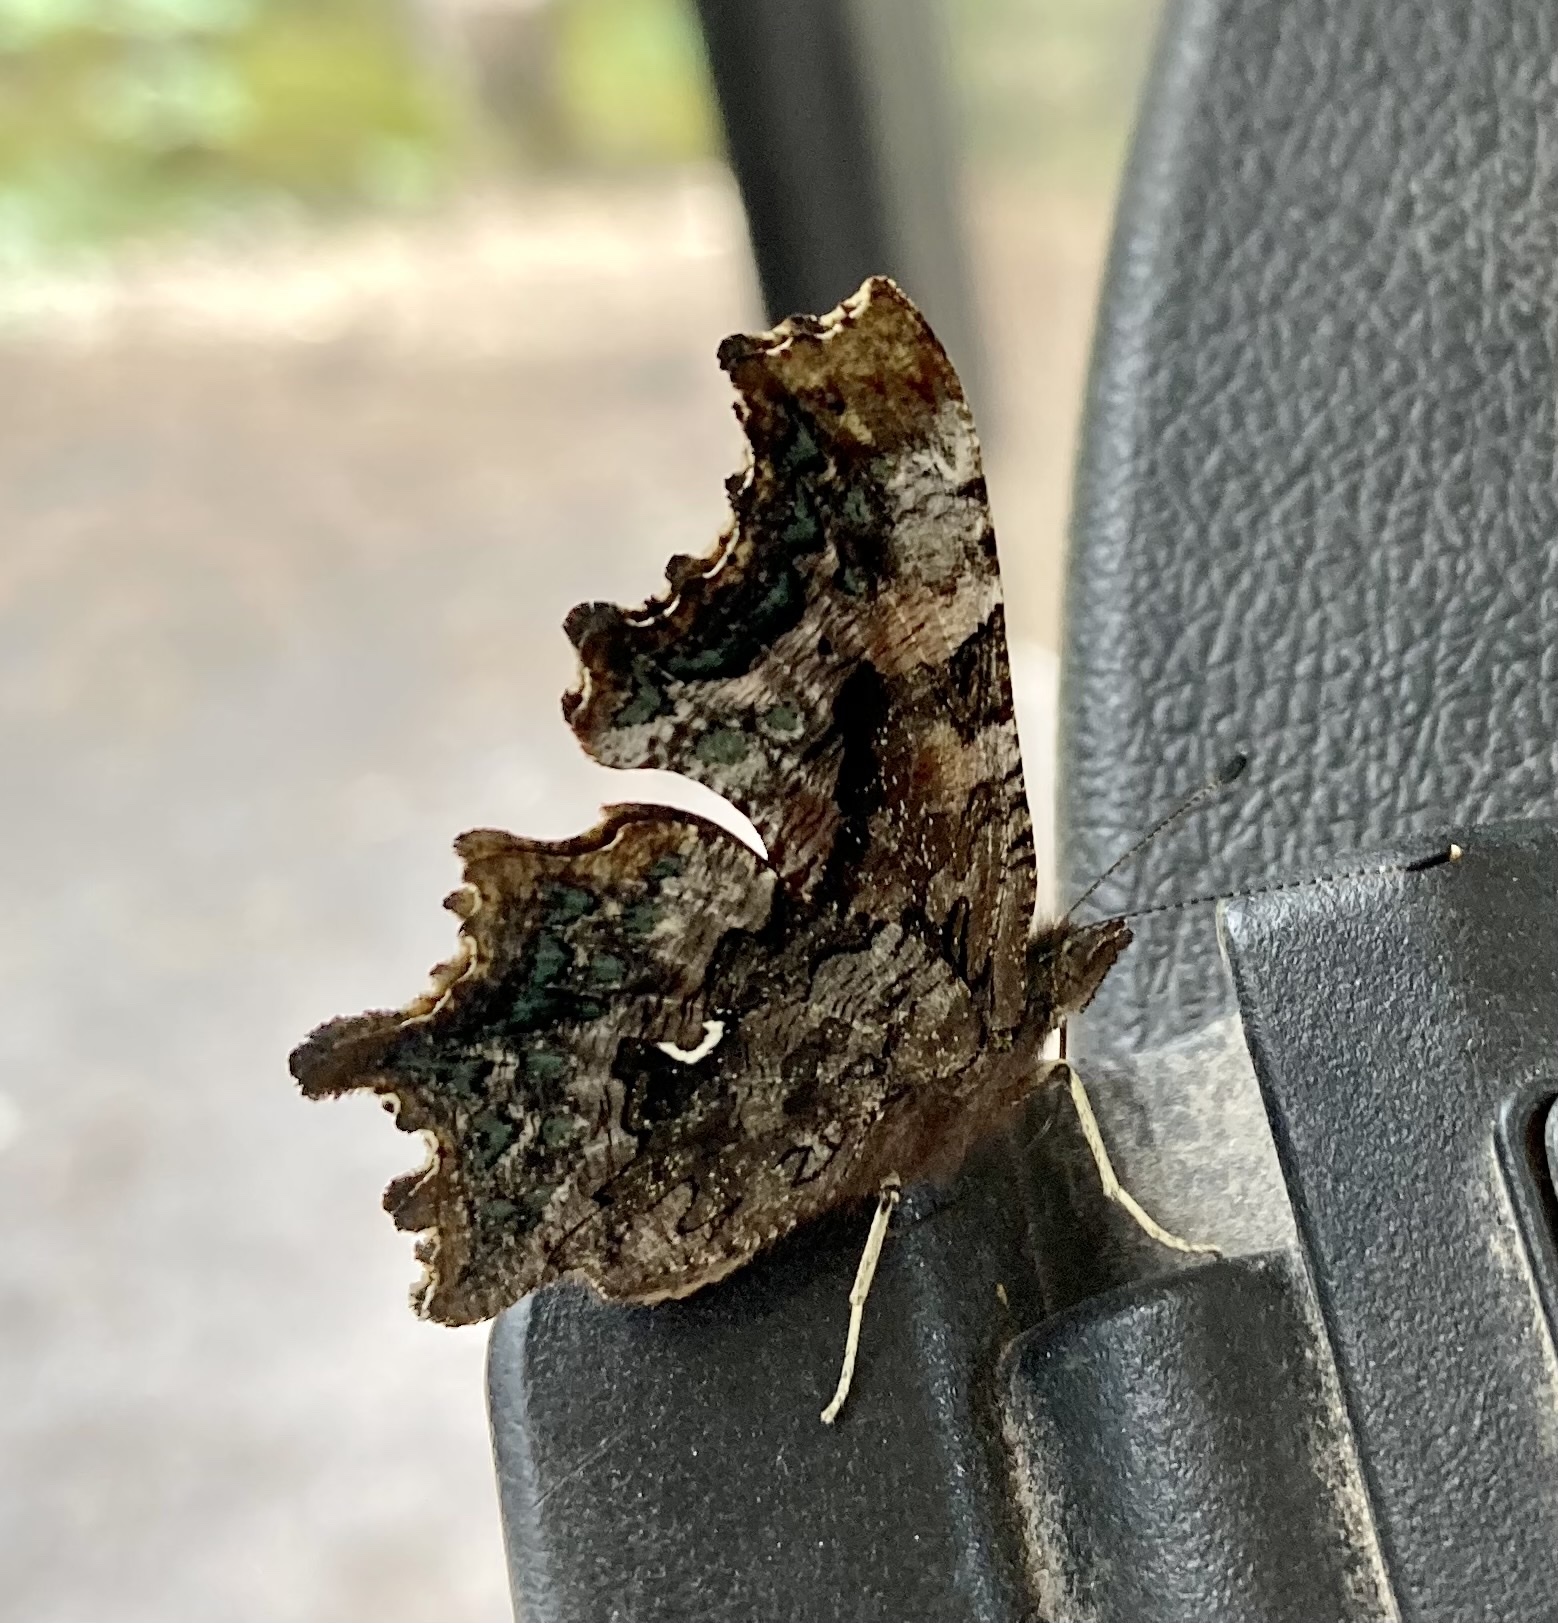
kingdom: Animalia
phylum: Arthropoda
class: Insecta
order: Lepidoptera
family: Nymphalidae
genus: Polygonia
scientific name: Polygonia faunus
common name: Green comma
